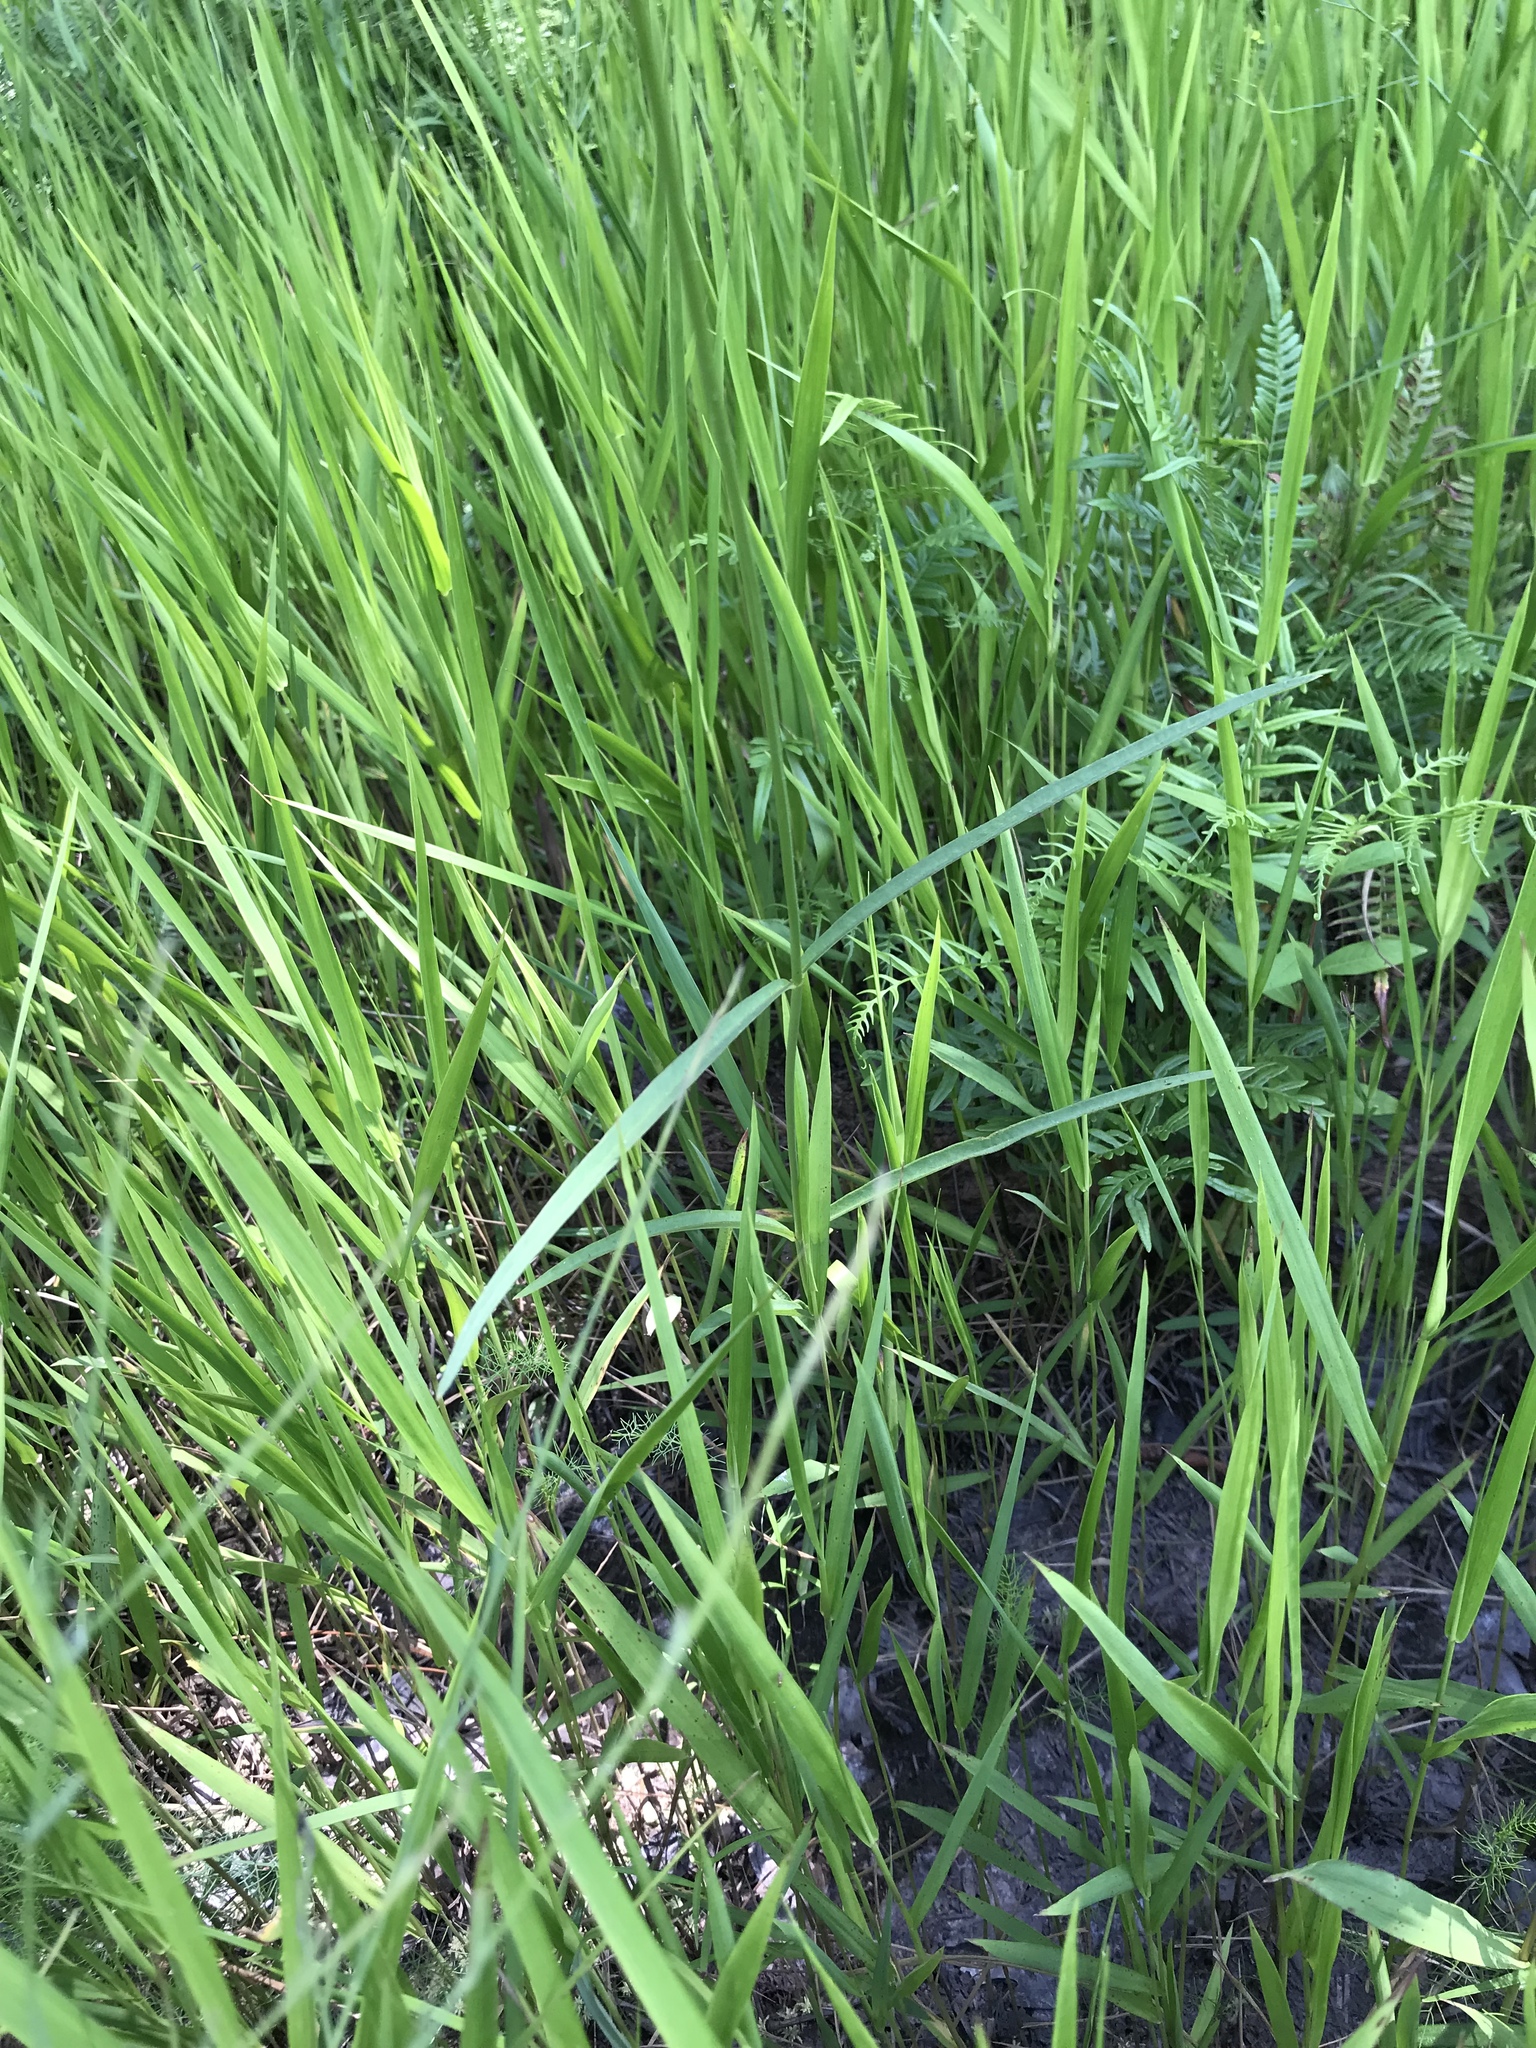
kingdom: Plantae
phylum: Tracheophyta
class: Magnoliopsida
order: Gentianales
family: Apocynaceae
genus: Asclepias
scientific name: Asclepias lanceolata
